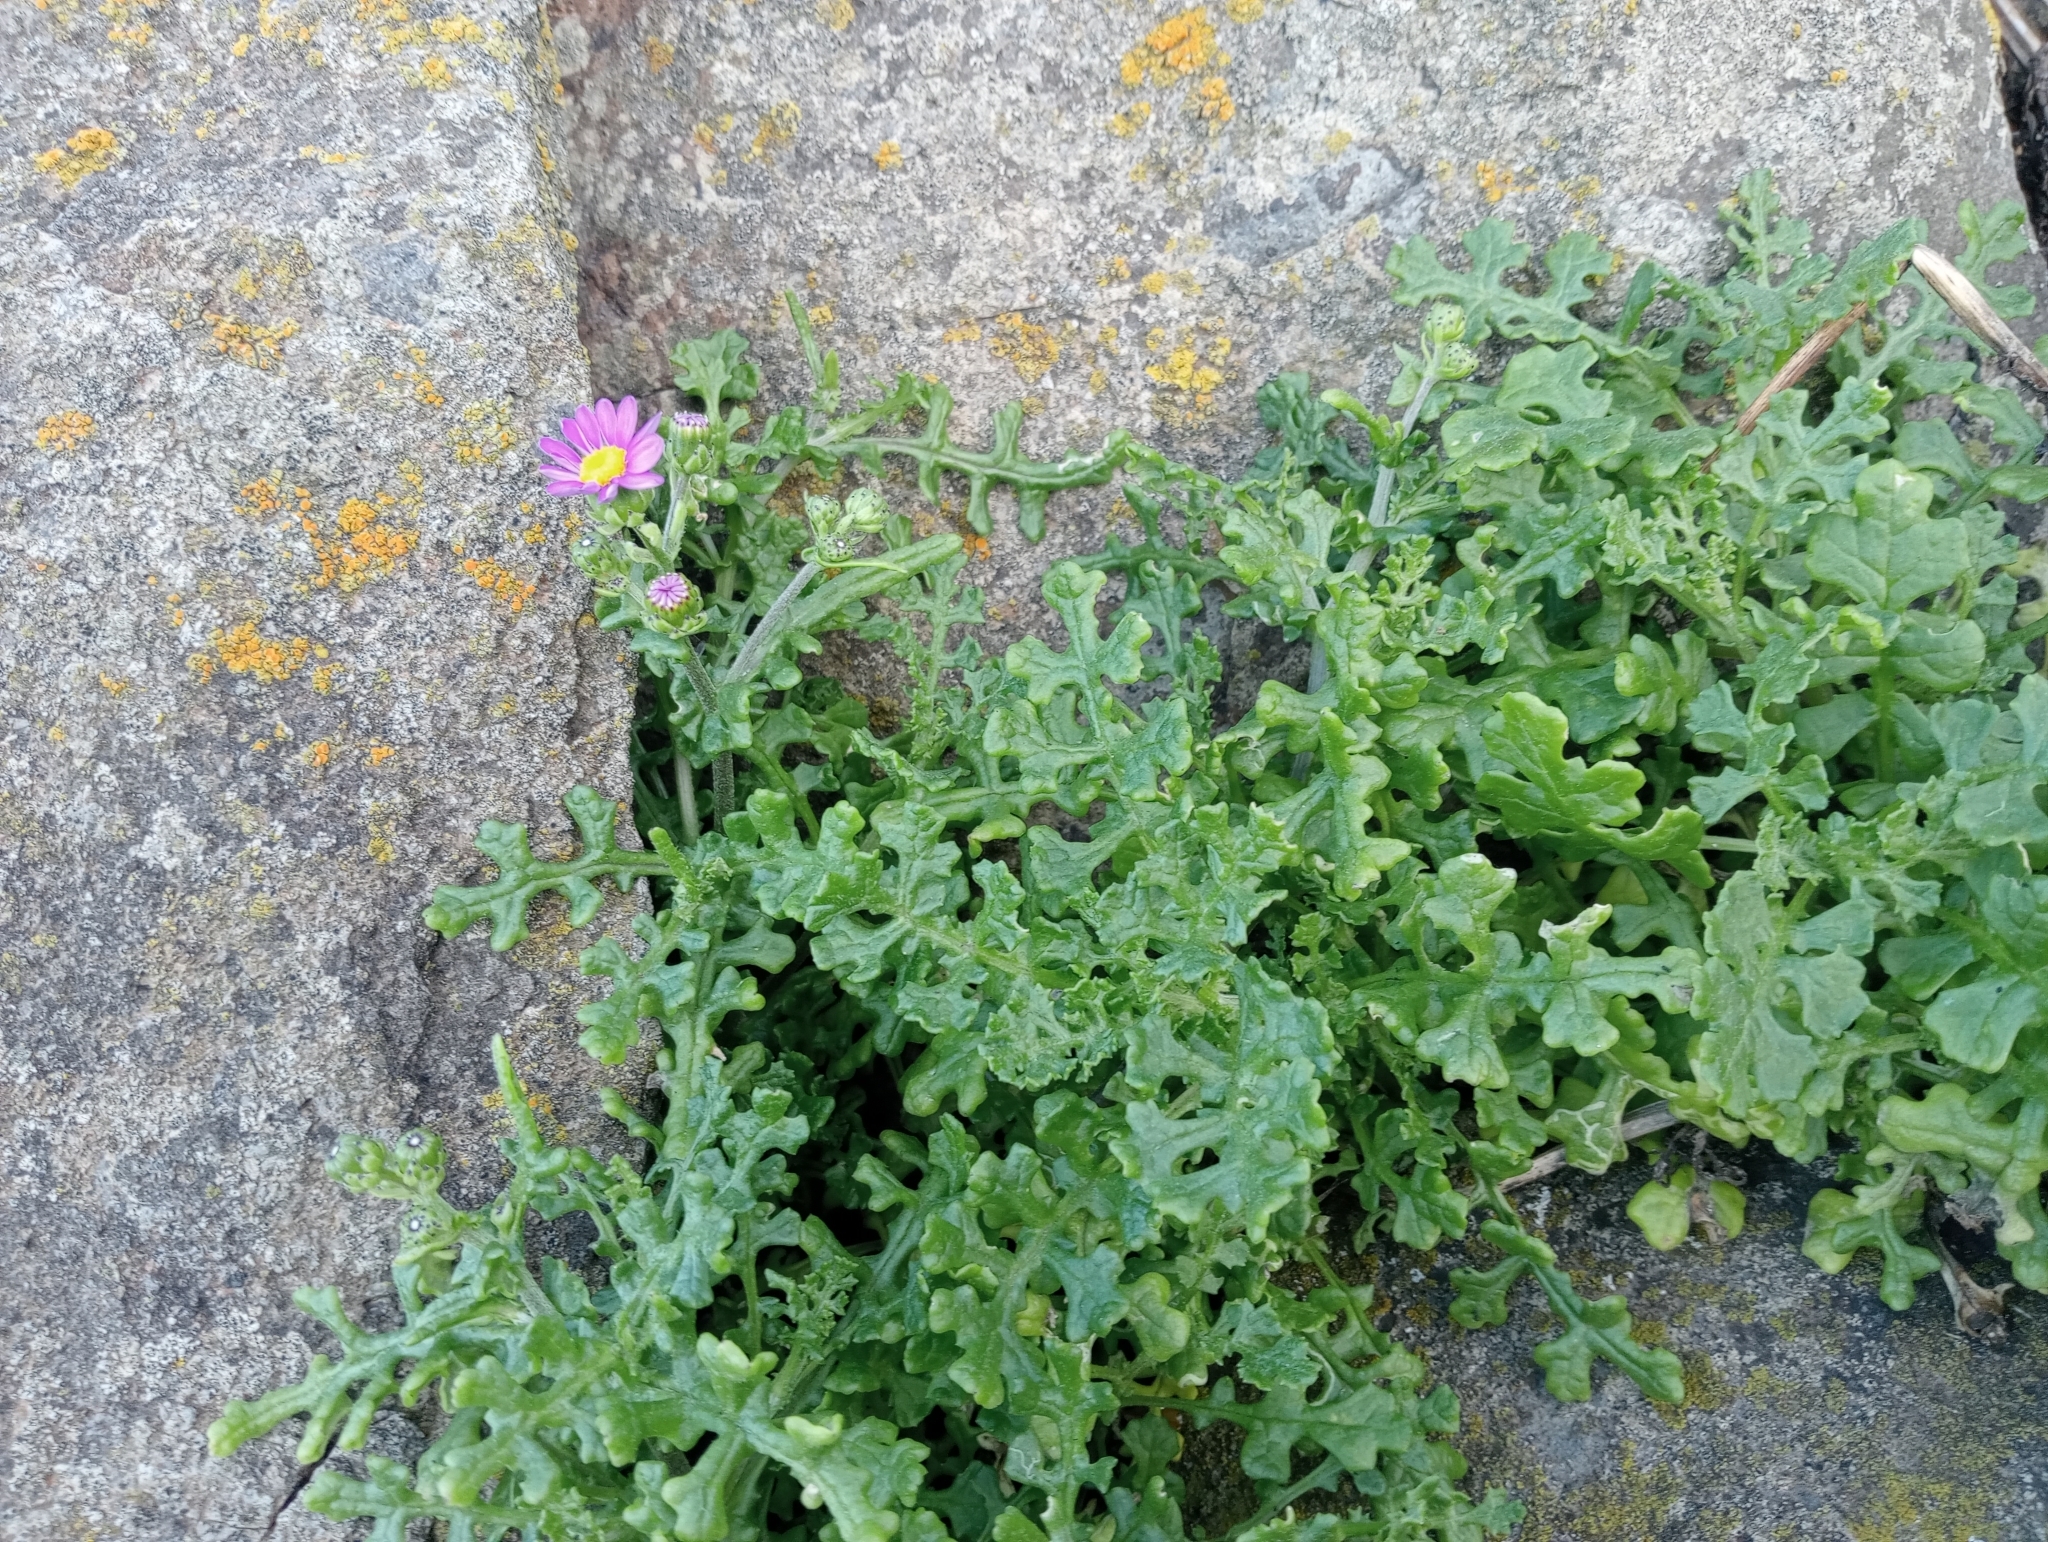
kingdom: Plantae
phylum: Tracheophyta
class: Magnoliopsida
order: Asterales
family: Asteraceae
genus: Senecio
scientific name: Senecio elegans
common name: Purple groundsel
